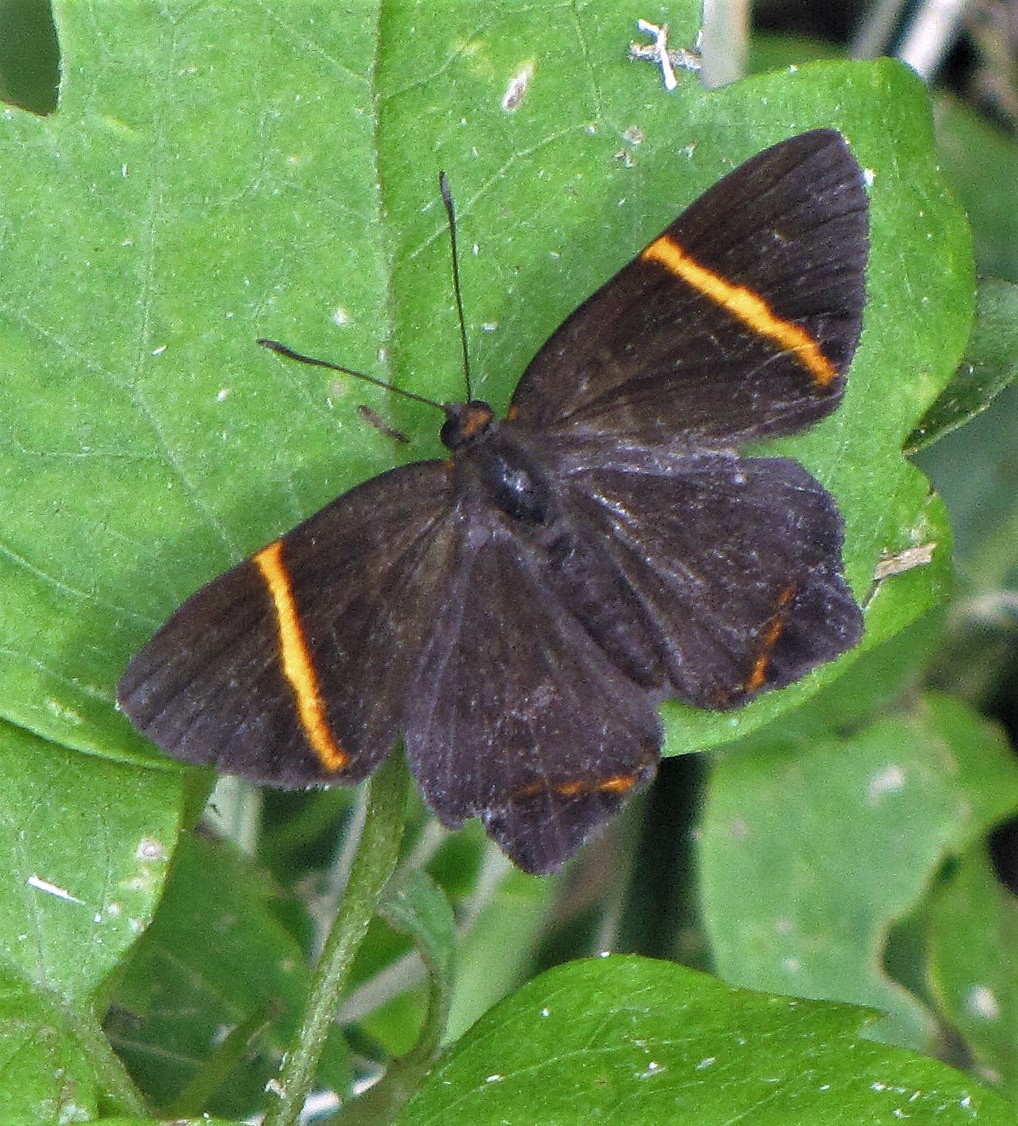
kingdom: Animalia
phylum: Arthropoda
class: Insecta
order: Lepidoptera
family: Riodinidae
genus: Riodina
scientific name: Riodina lysippoides
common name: Little dancer metalmark
